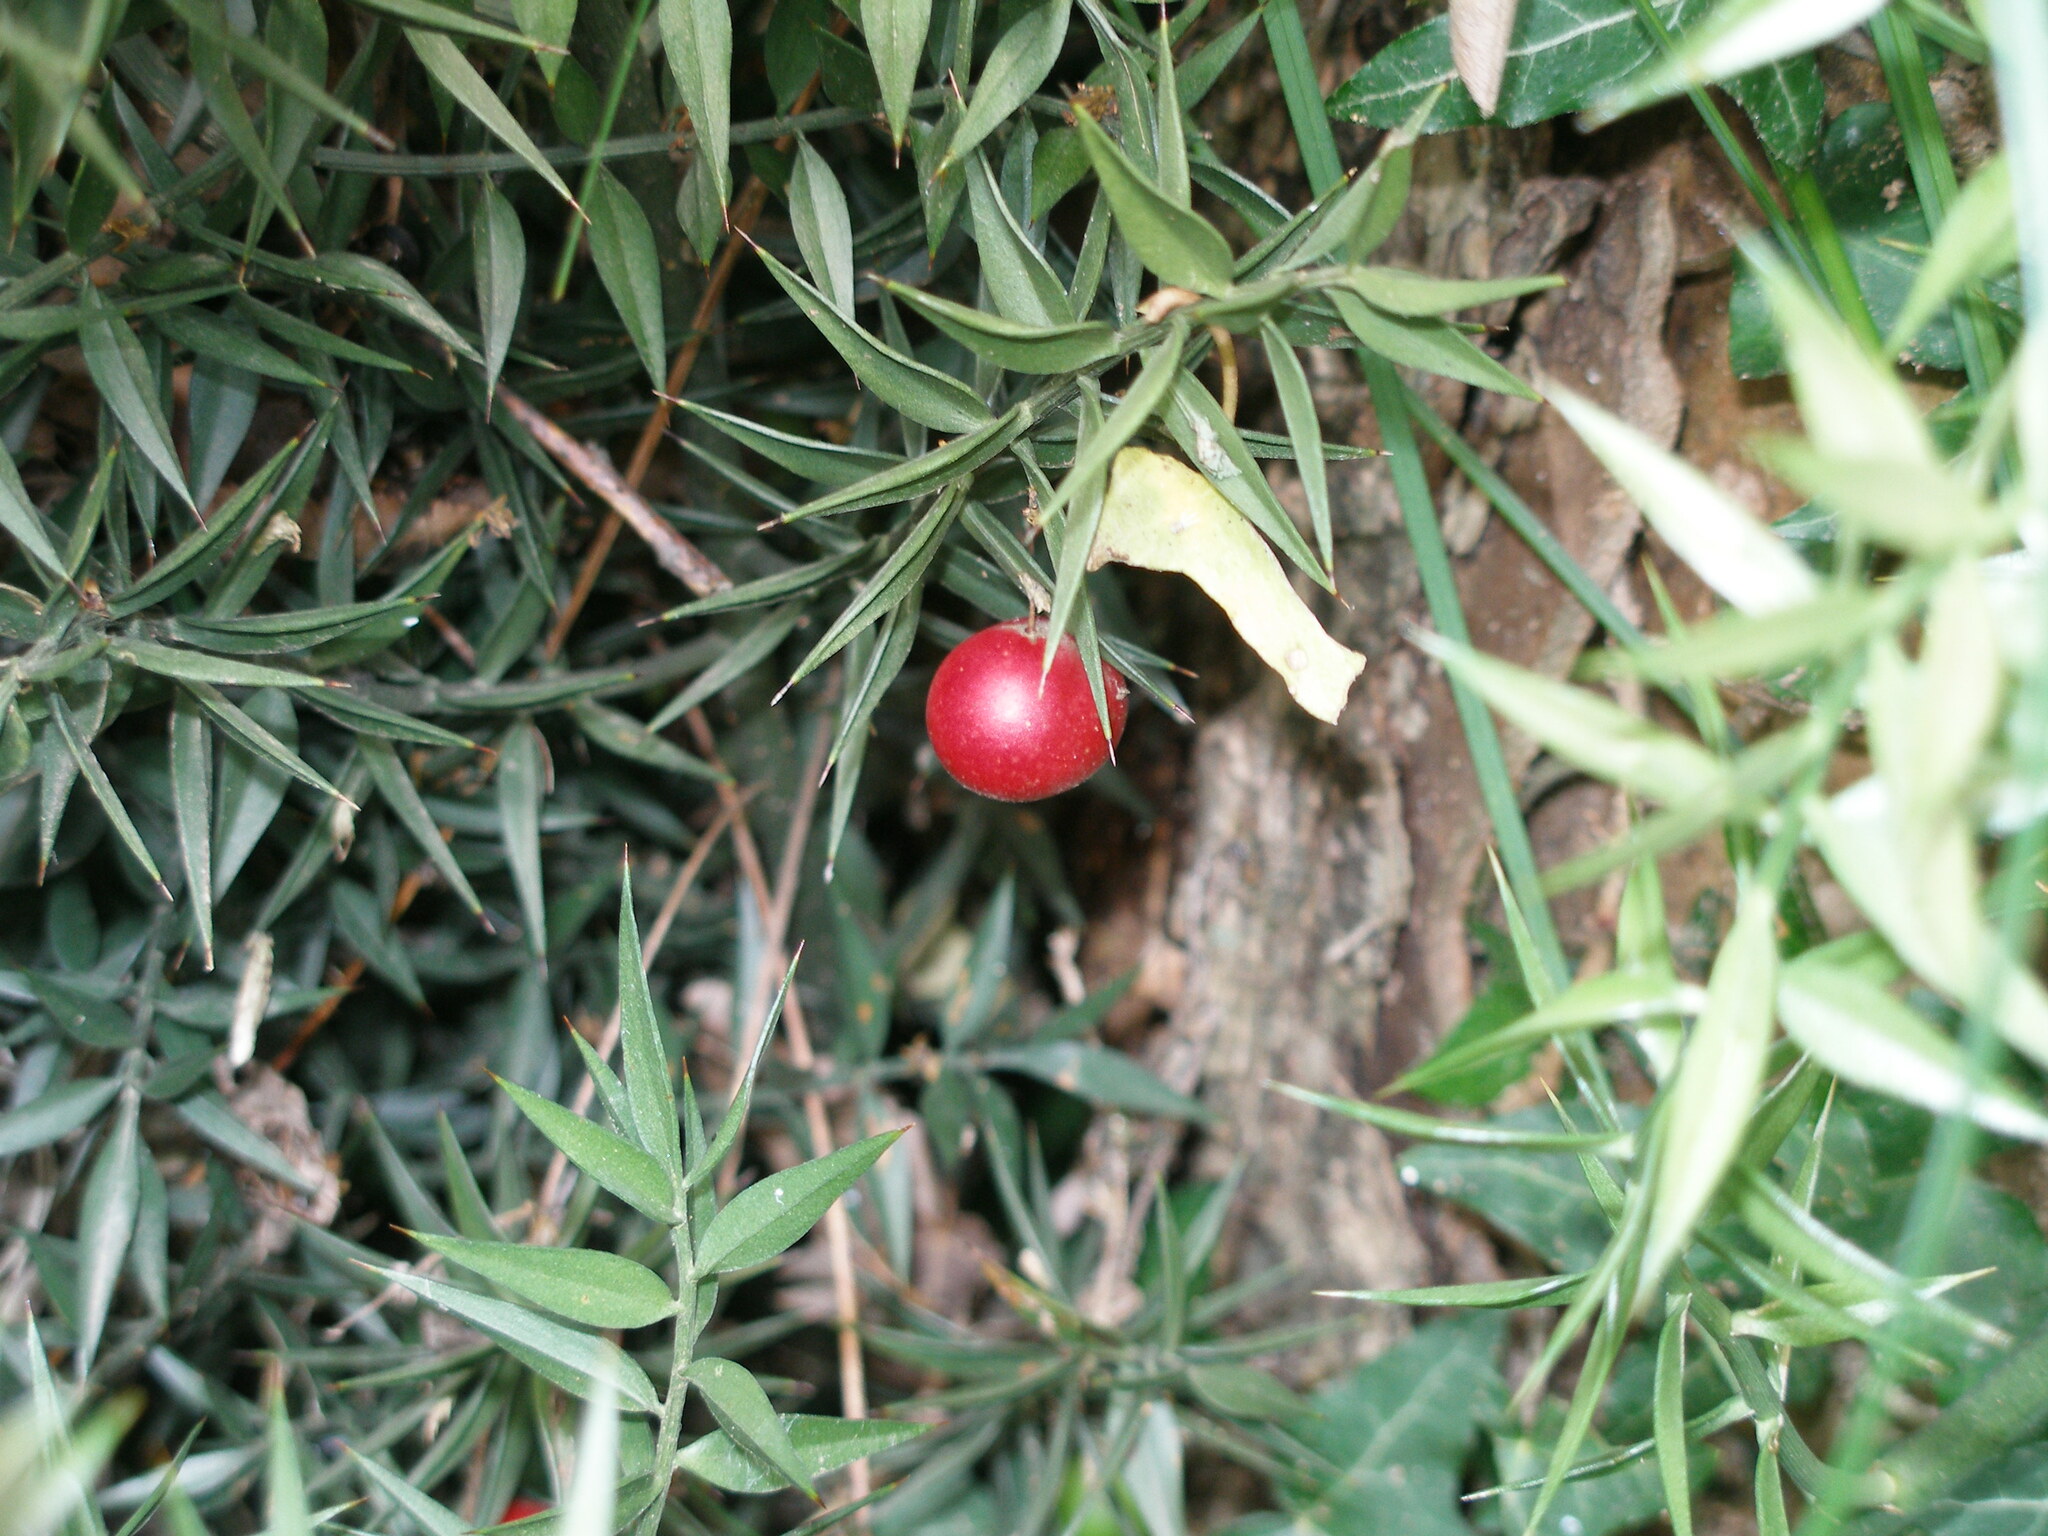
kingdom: Plantae
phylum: Tracheophyta
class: Liliopsida
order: Asparagales
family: Asparagaceae
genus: Ruscus
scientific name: Ruscus aculeatus
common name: Butcher's-broom
